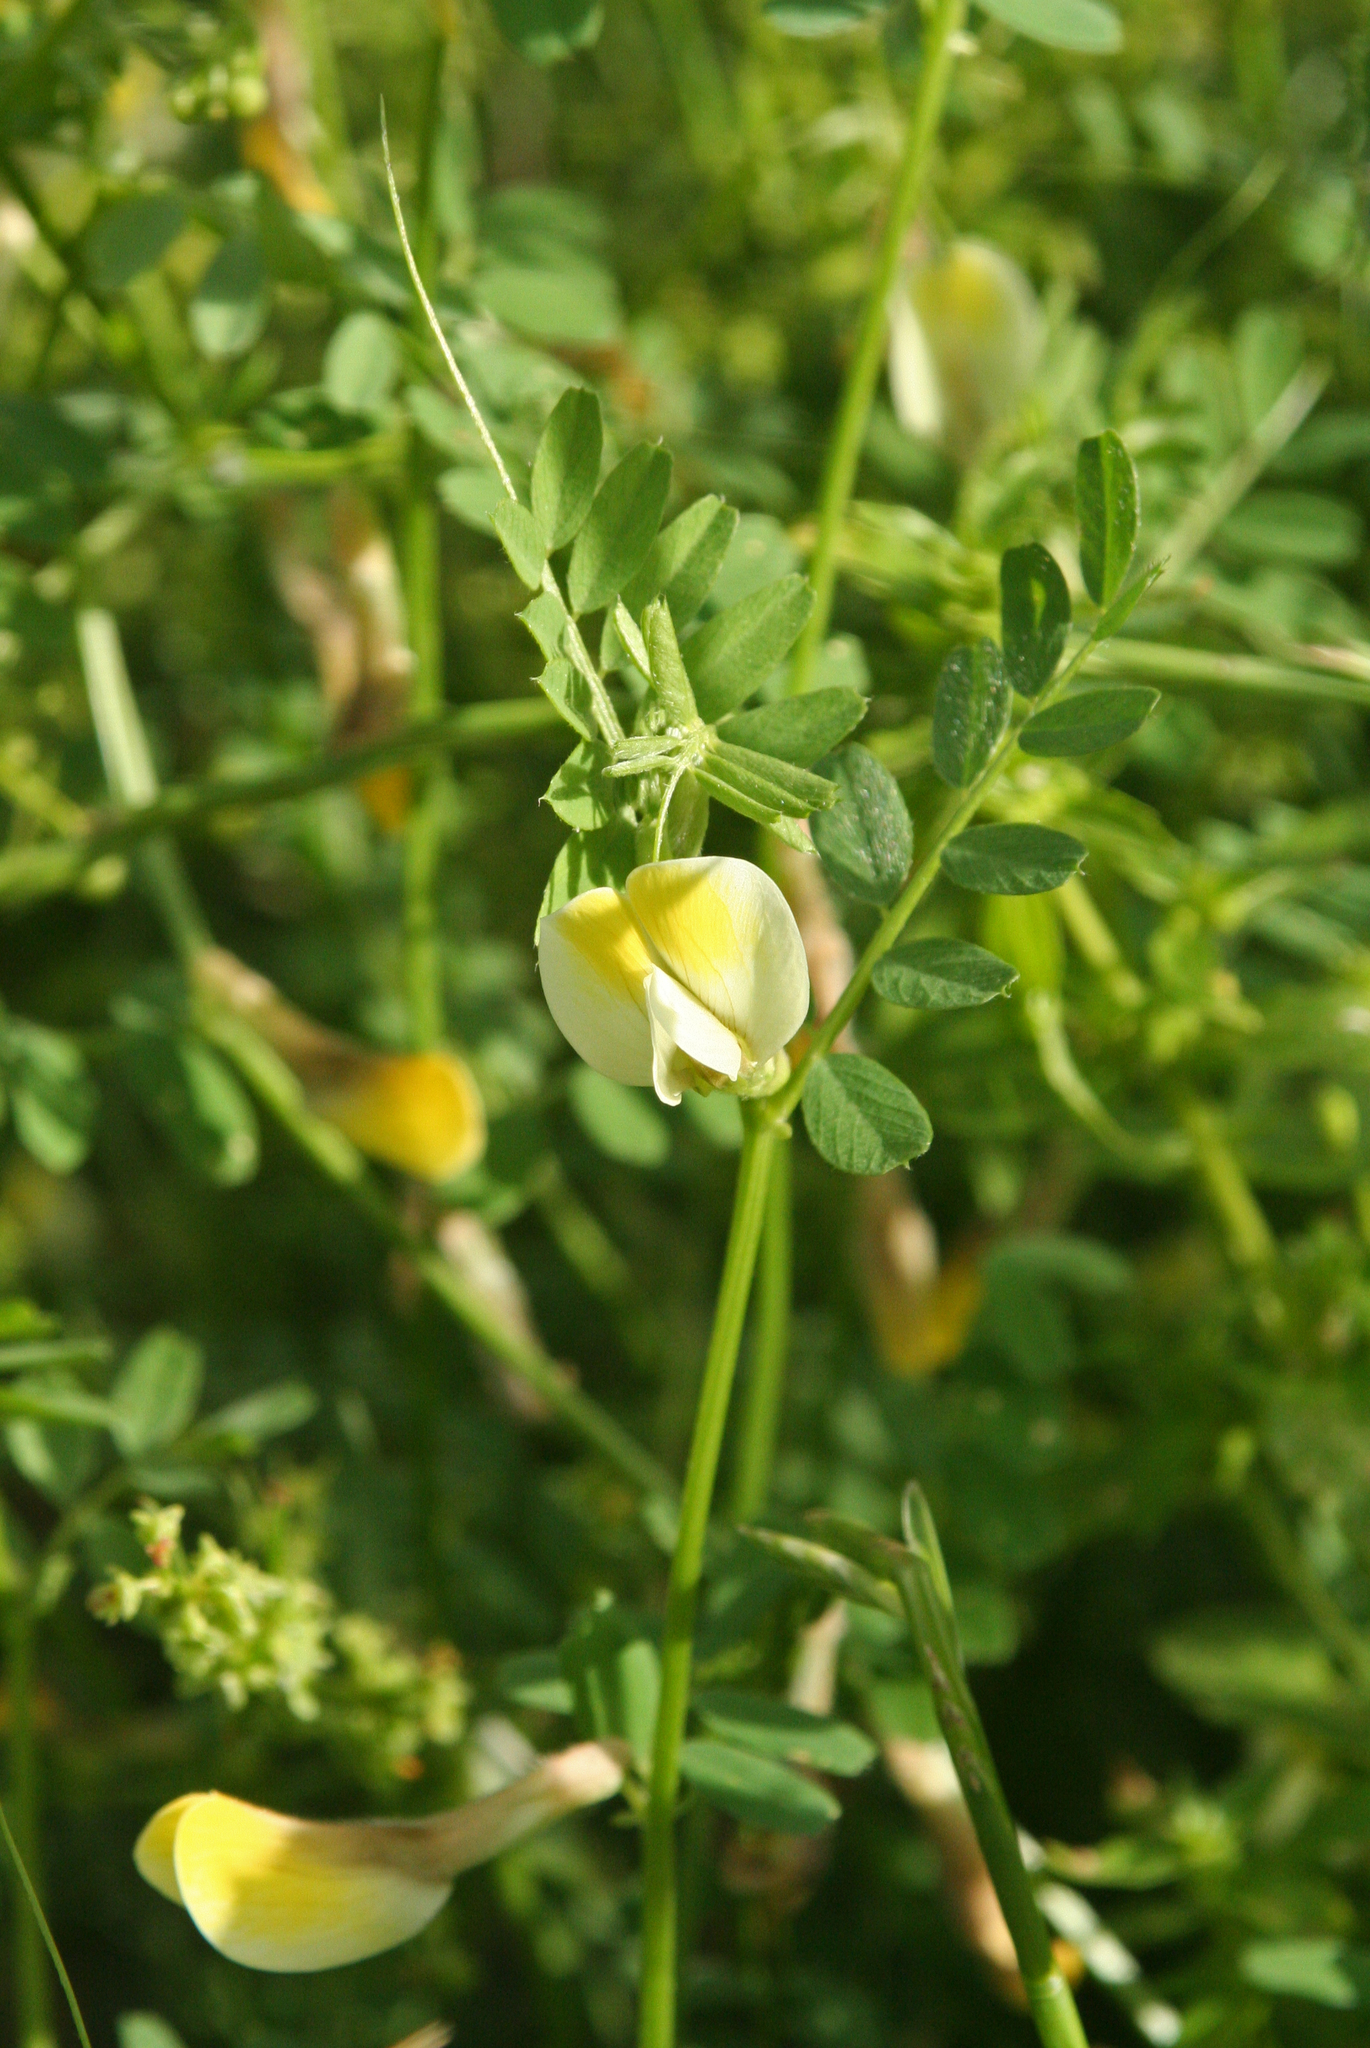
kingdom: Plantae
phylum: Tracheophyta
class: Magnoliopsida
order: Fabales
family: Fabaceae
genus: Vicia
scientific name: Vicia hybrida
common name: Hairy yellow vetch
